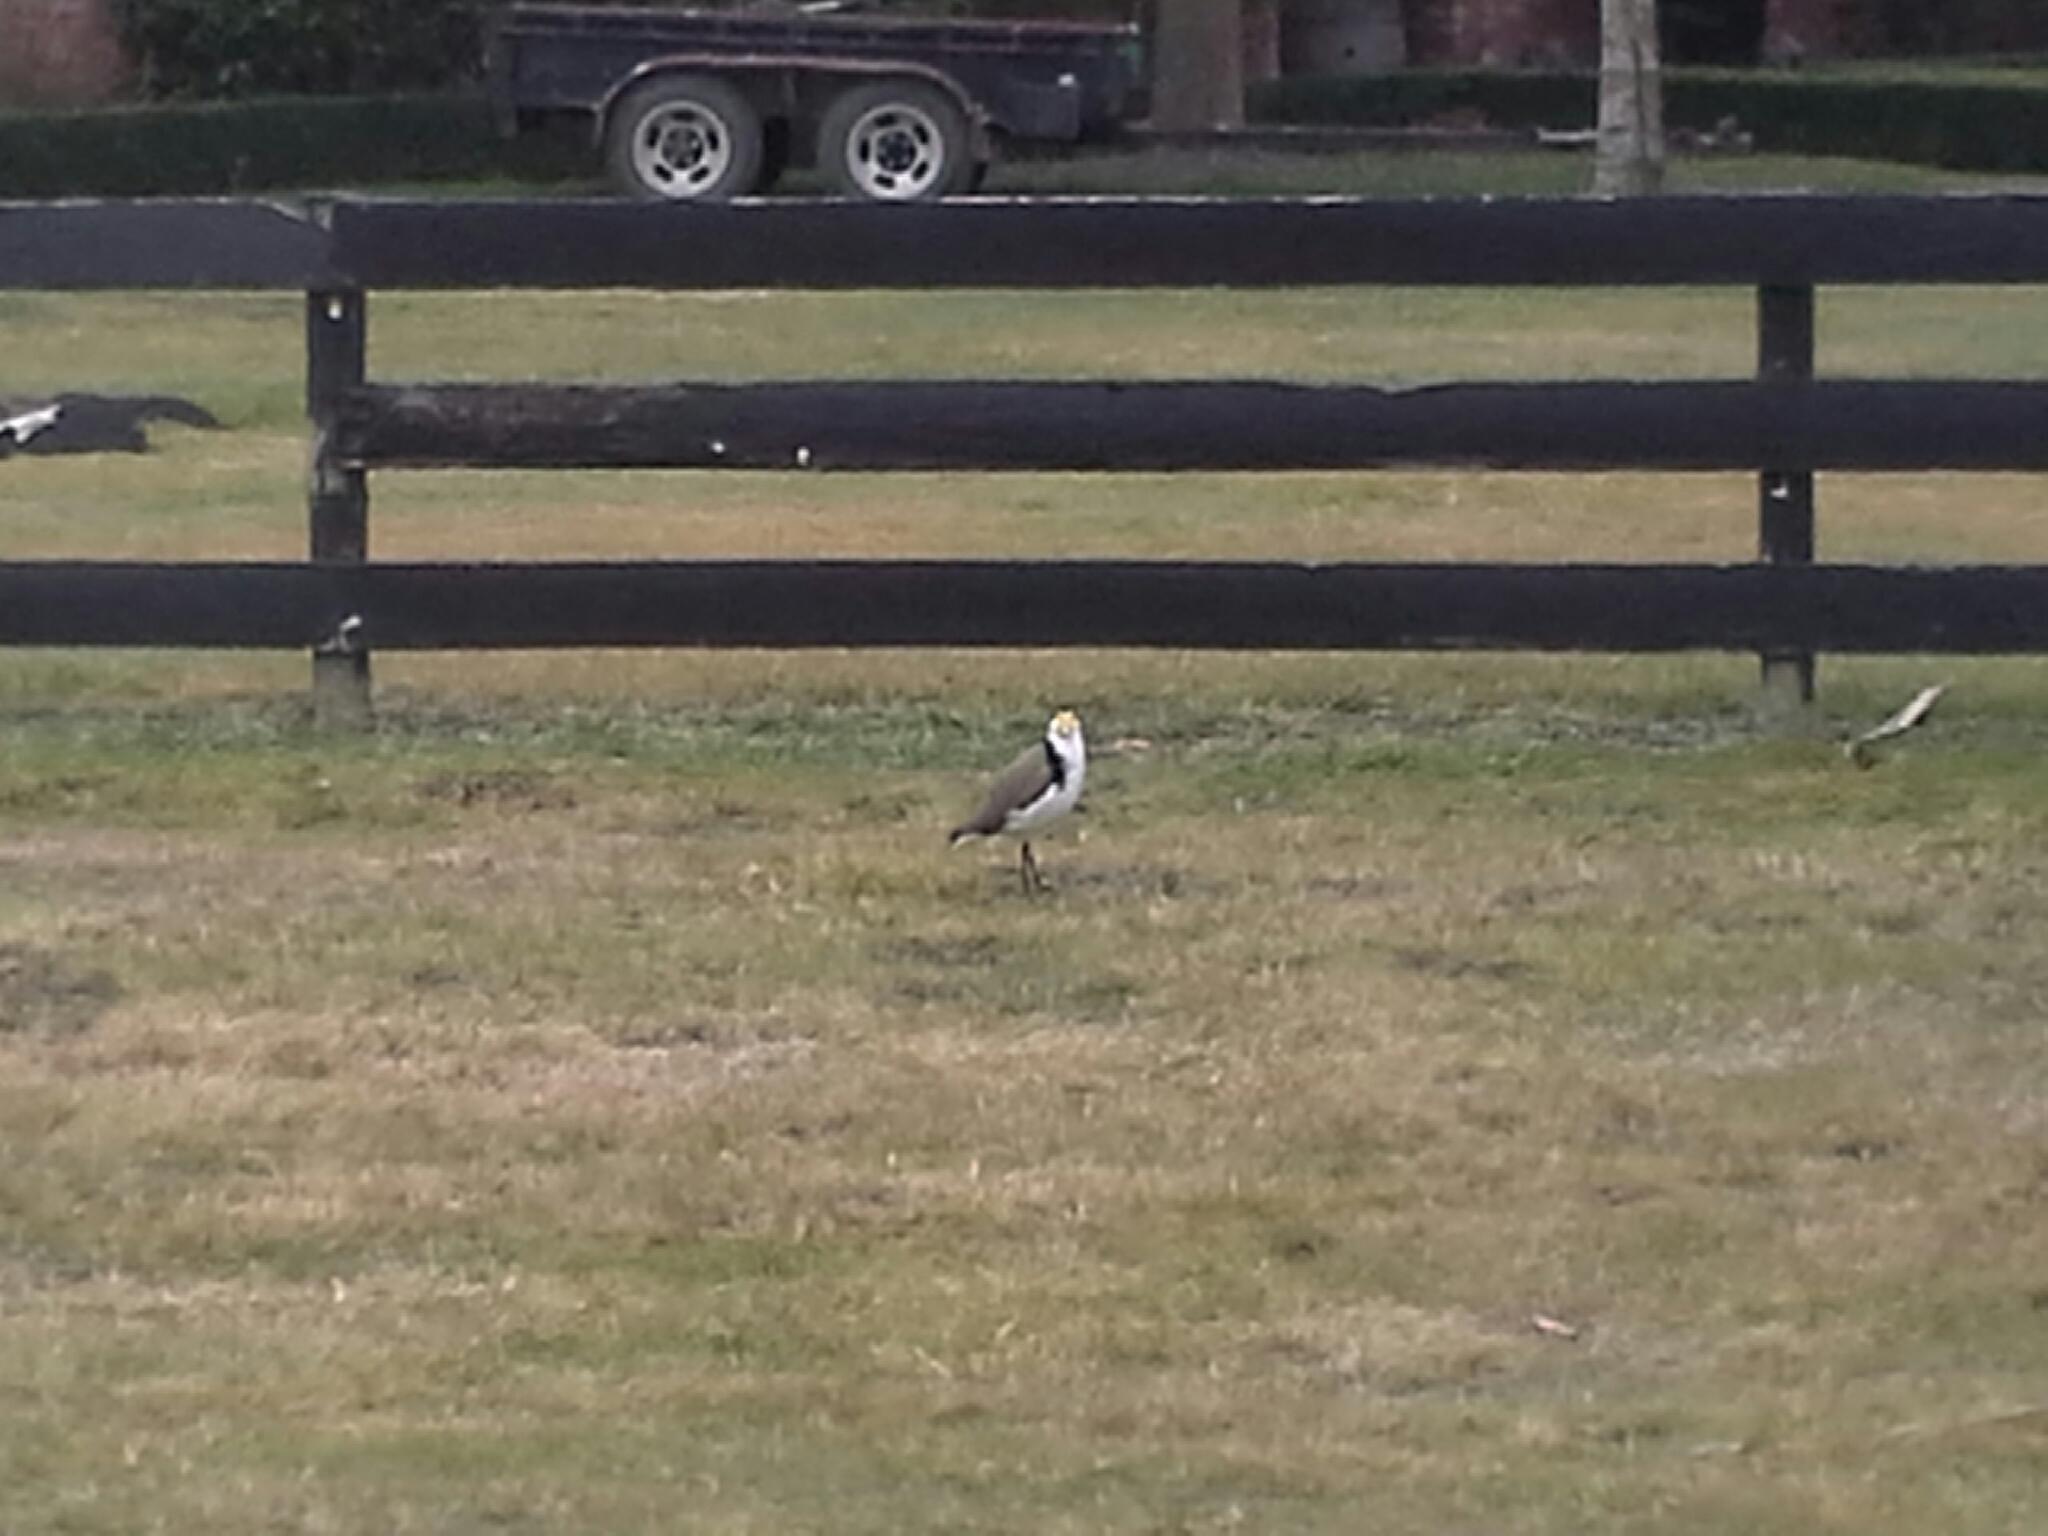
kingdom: Animalia
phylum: Chordata
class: Aves
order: Charadriiformes
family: Charadriidae
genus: Vanellus
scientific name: Vanellus miles
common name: Masked lapwing
